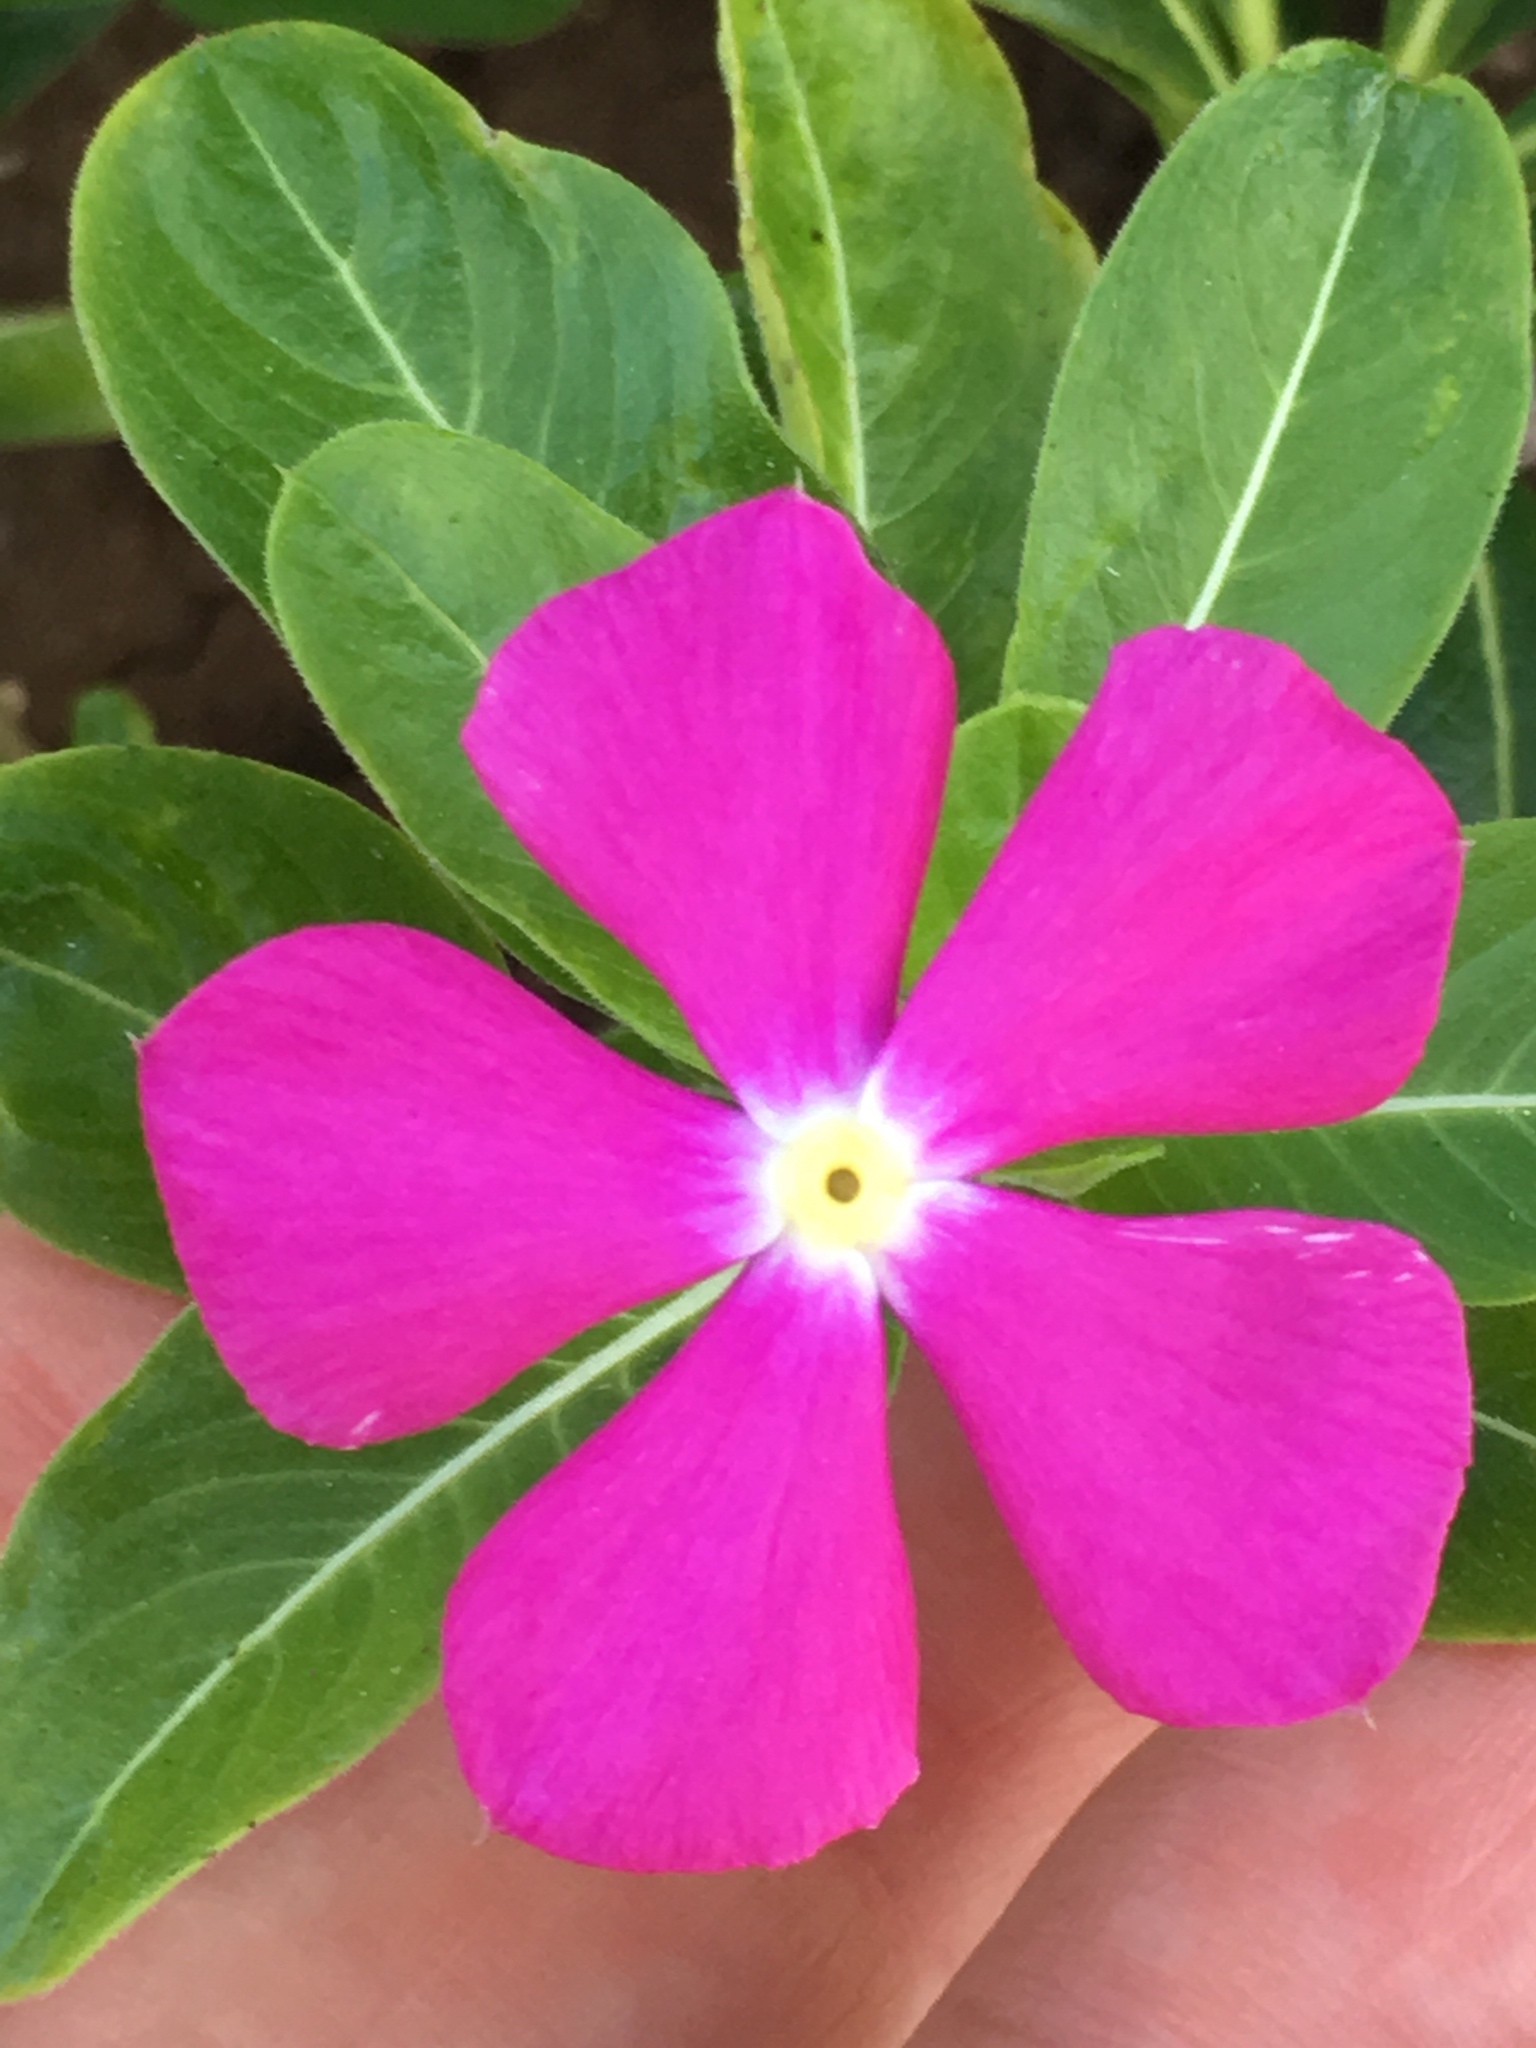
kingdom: Plantae
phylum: Tracheophyta
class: Magnoliopsida
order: Gentianales
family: Apocynaceae
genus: Catharanthus
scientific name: Catharanthus roseus
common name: Madagascar periwinkle
